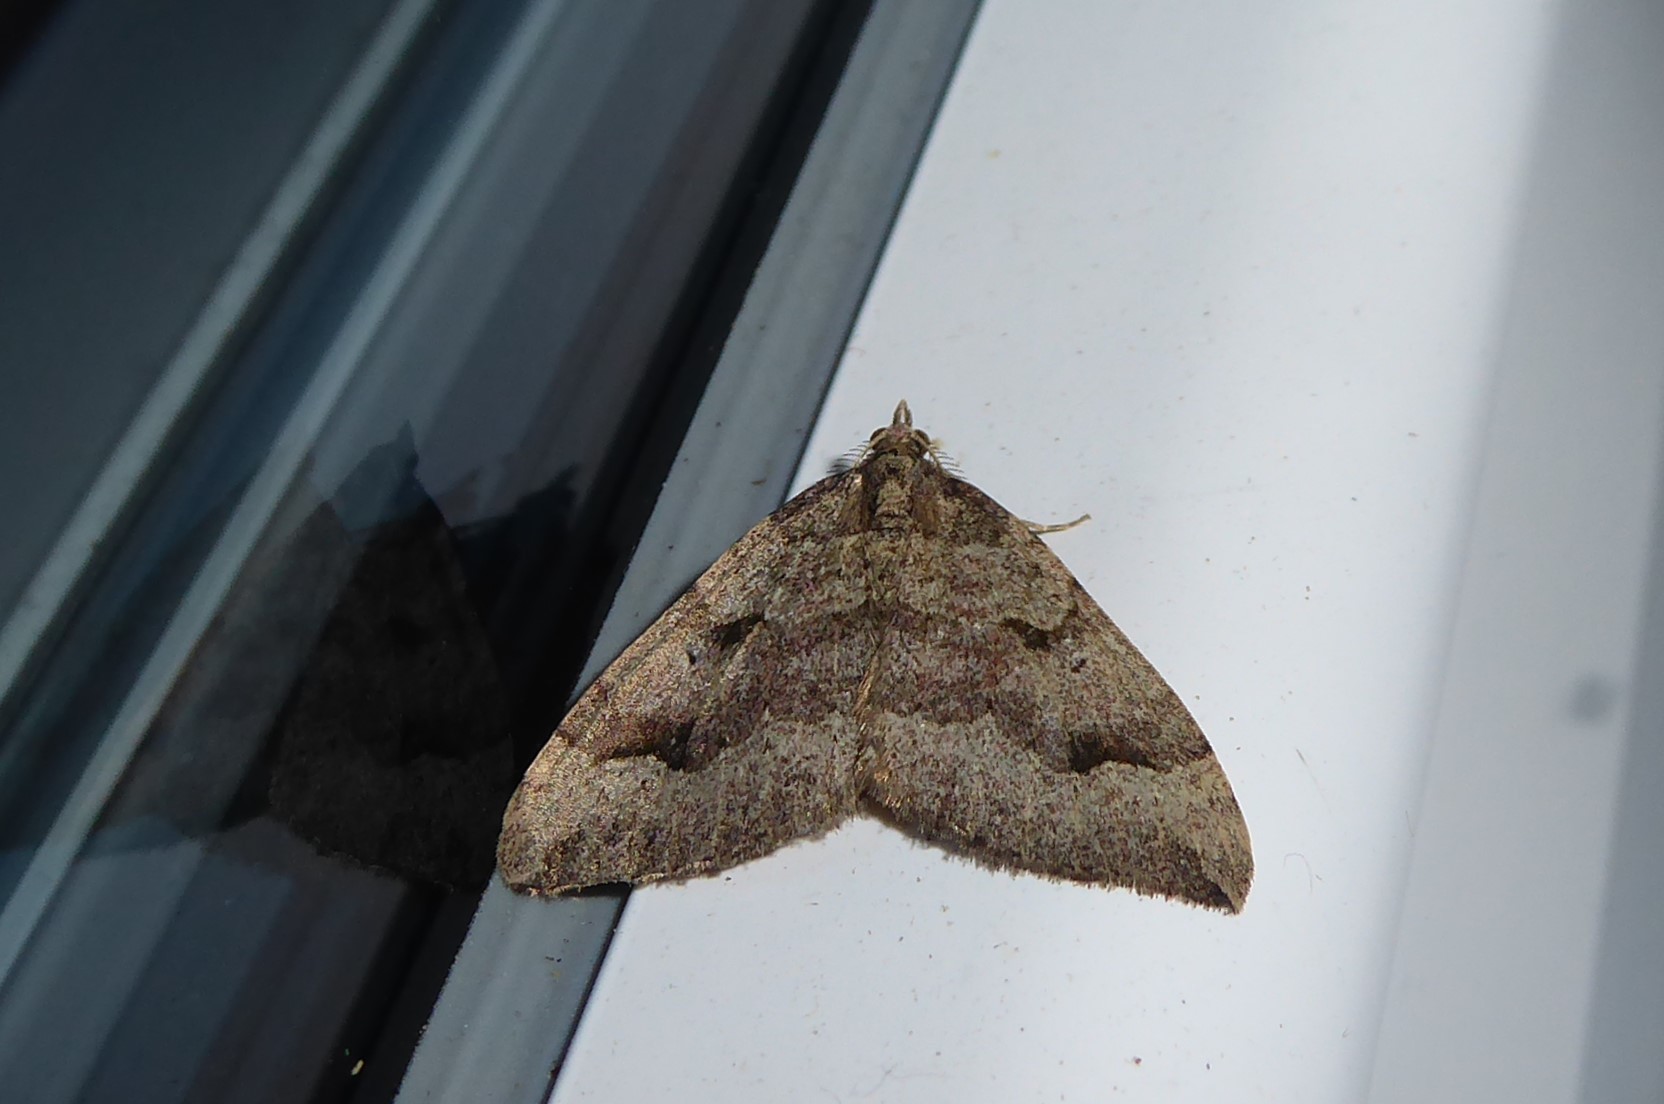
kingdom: Animalia
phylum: Arthropoda
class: Insecta
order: Lepidoptera
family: Geometridae
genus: Epyaxa
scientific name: Epyaxa rosearia
